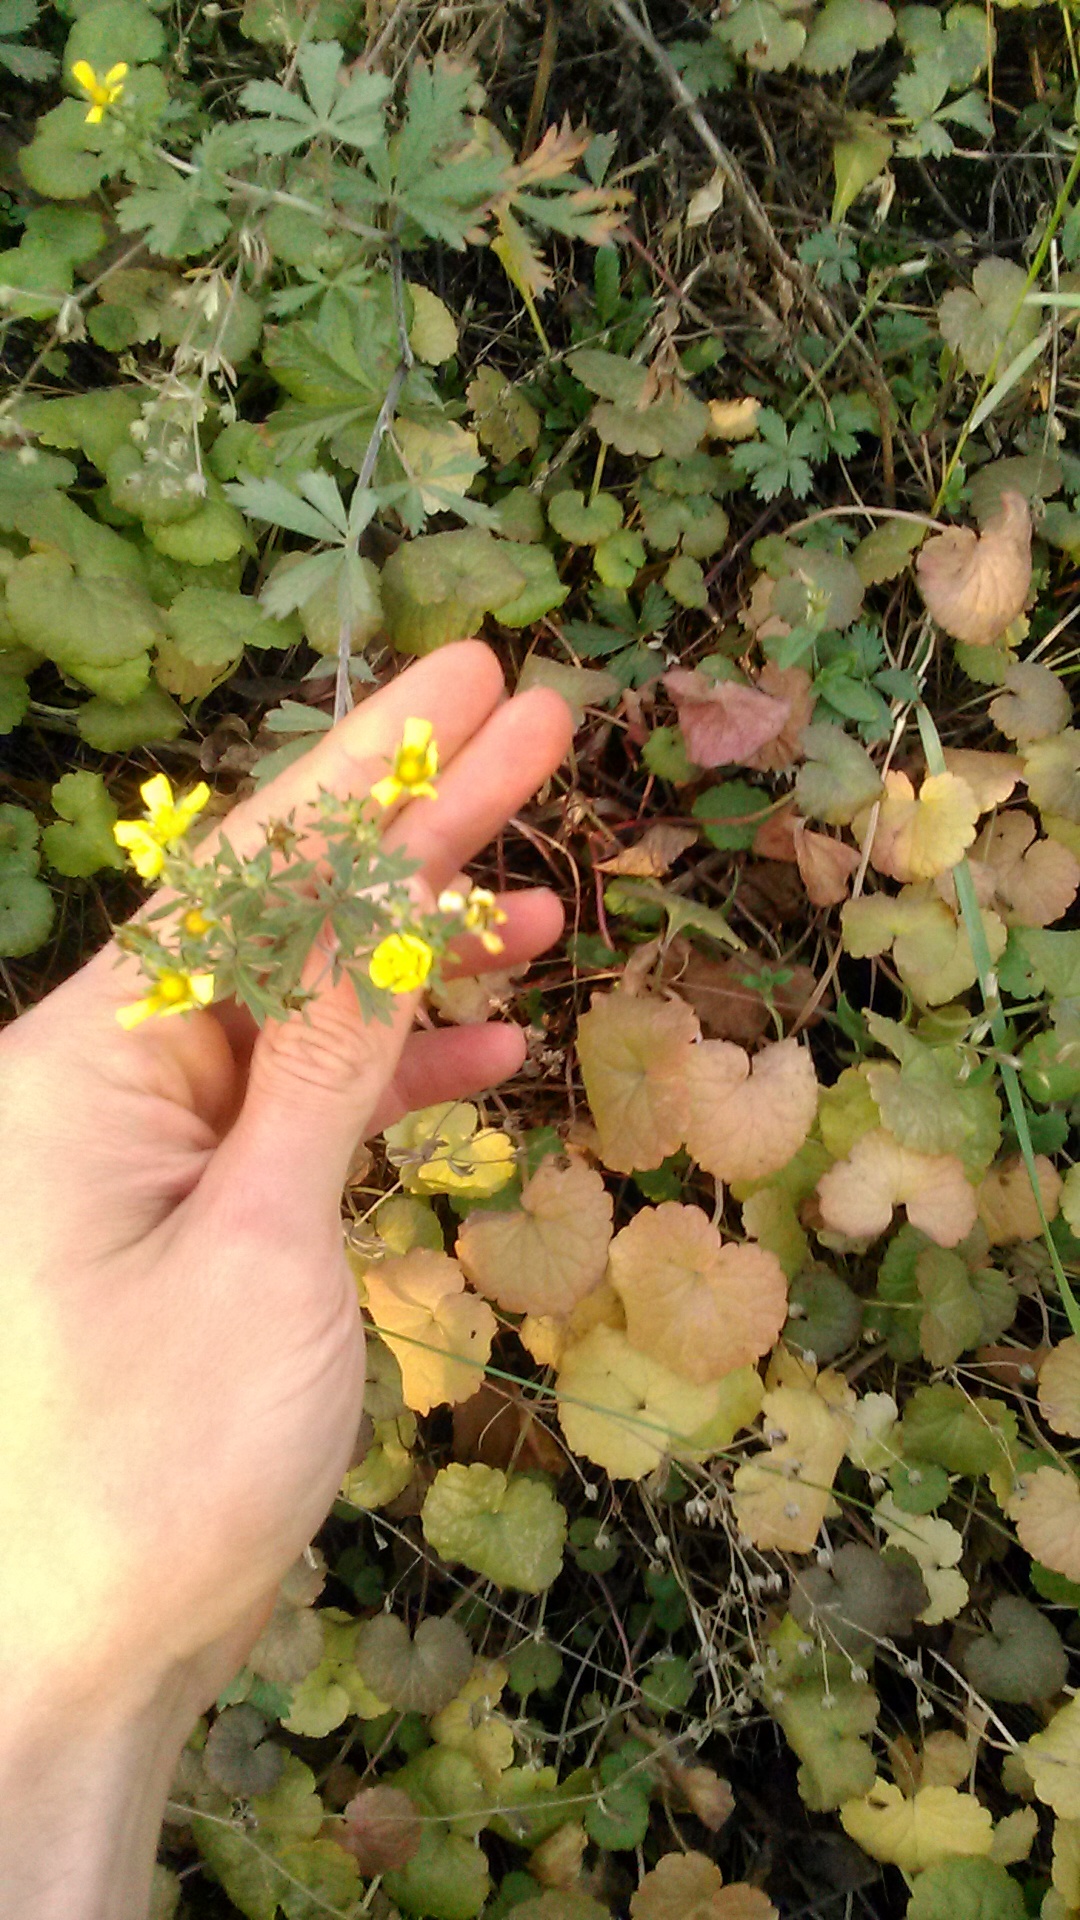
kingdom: Plantae
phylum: Tracheophyta
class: Magnoliopsida
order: Rosales
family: Rosaceae
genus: Potentilla
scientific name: Potentilla argentea
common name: Hoary cinquefoil
